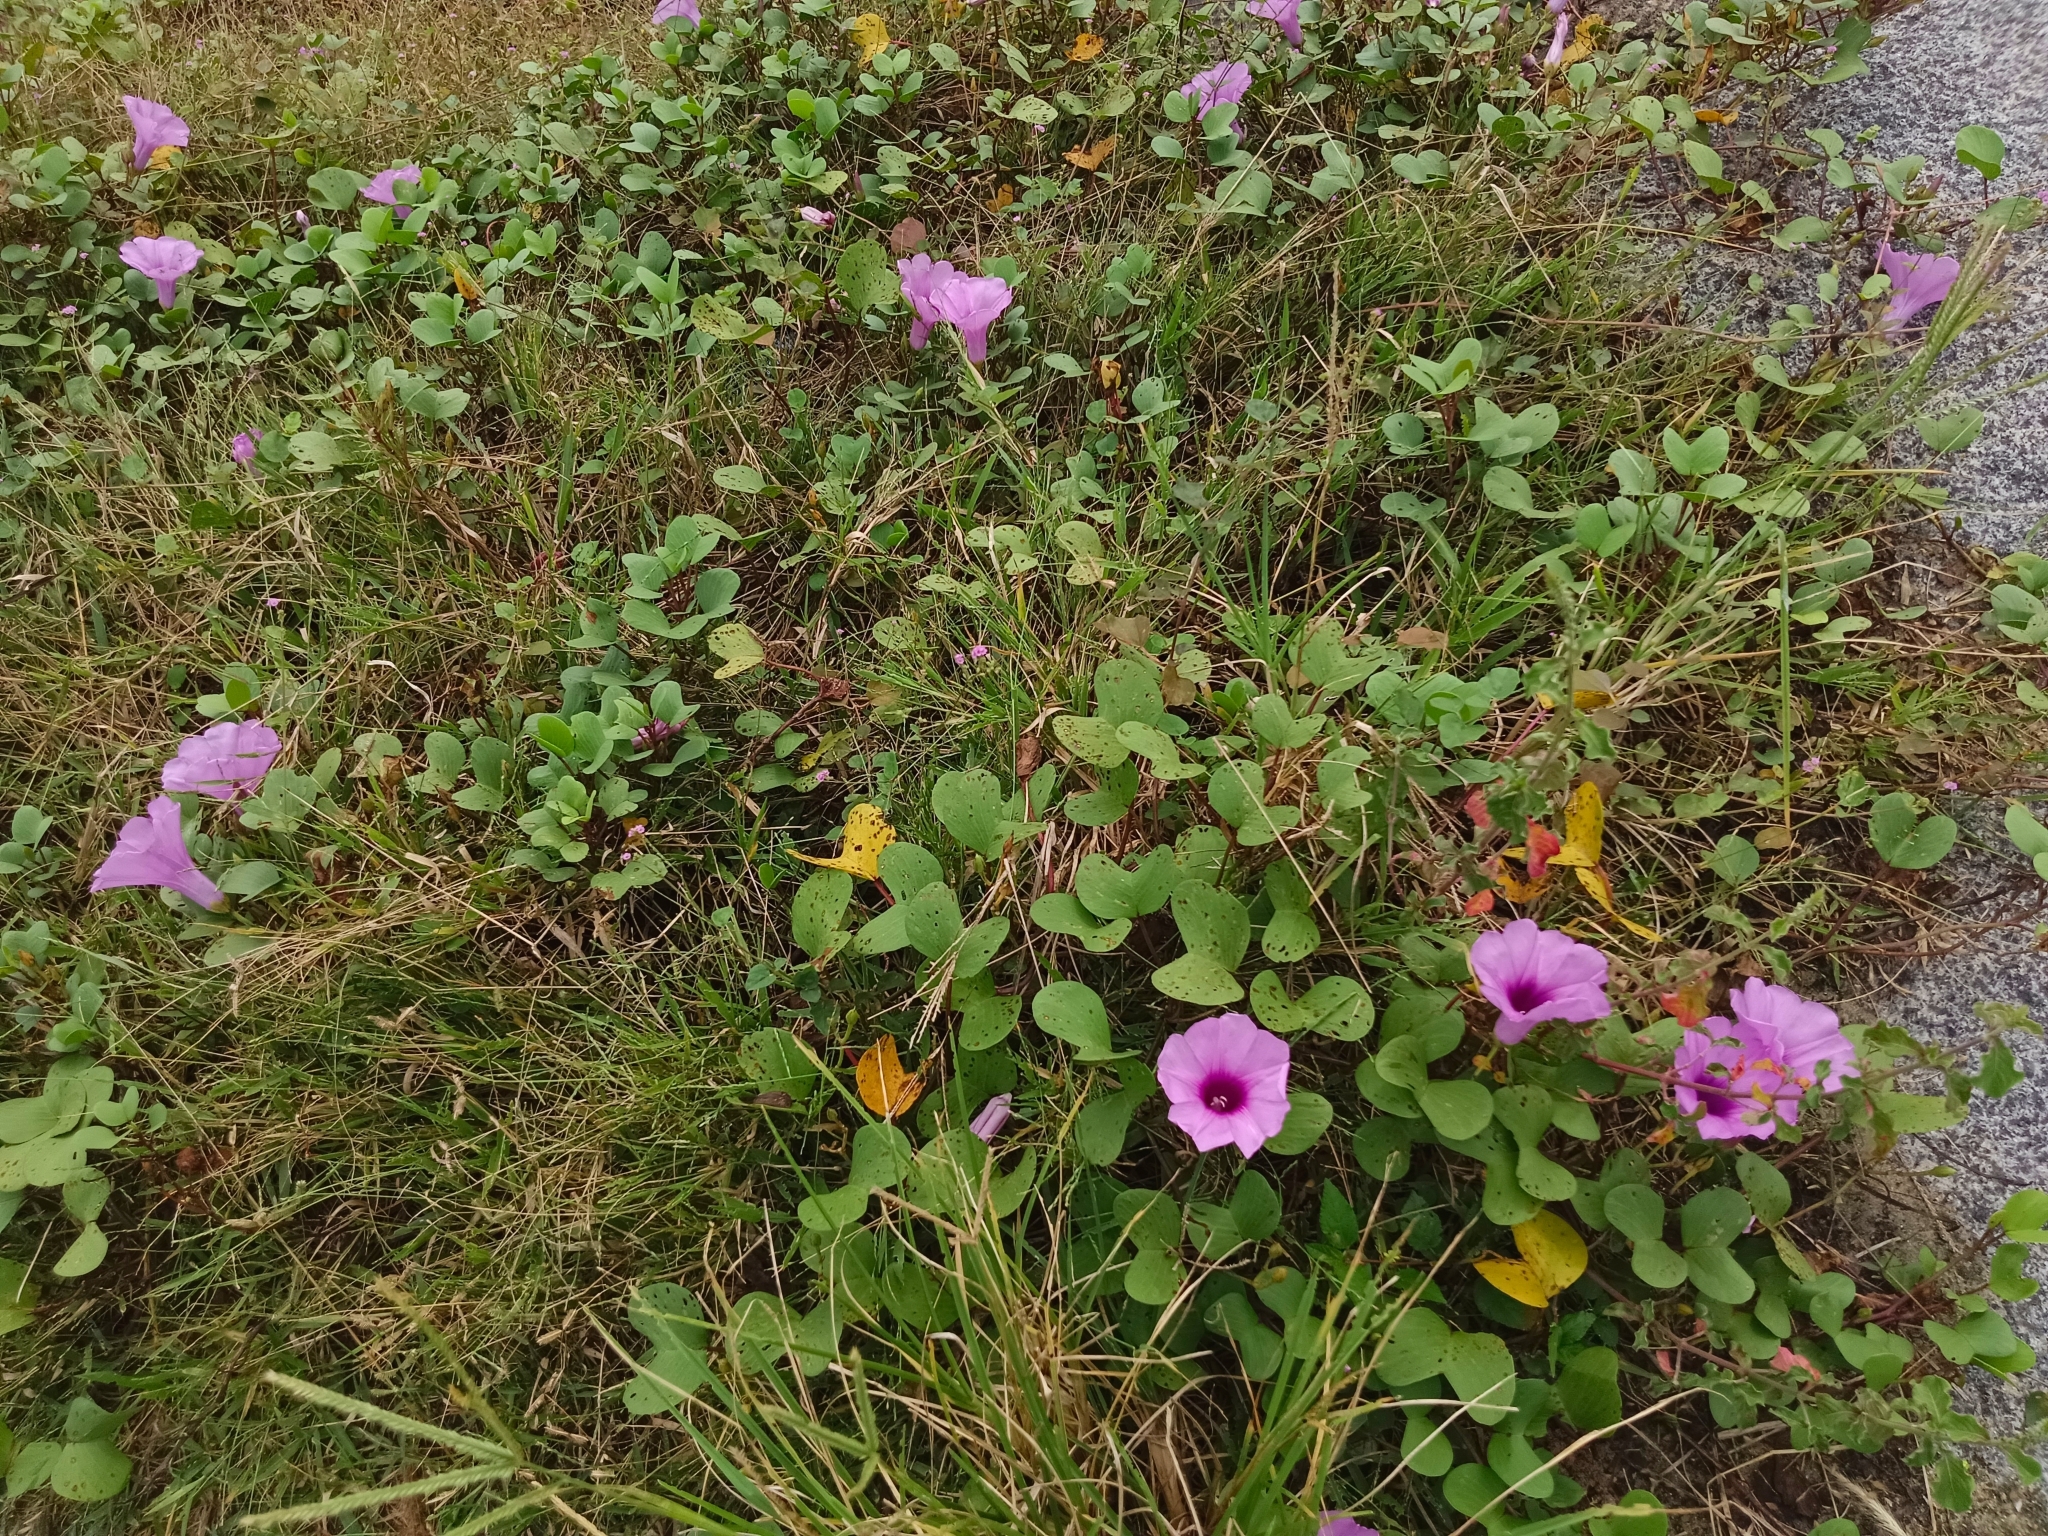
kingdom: Plantae
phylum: Tracheophyta
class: Magnoliopsida
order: Solanales
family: Convolvulaceae
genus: Ipomoea
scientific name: Ipomoea pes-caprae
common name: Beach morning glory
